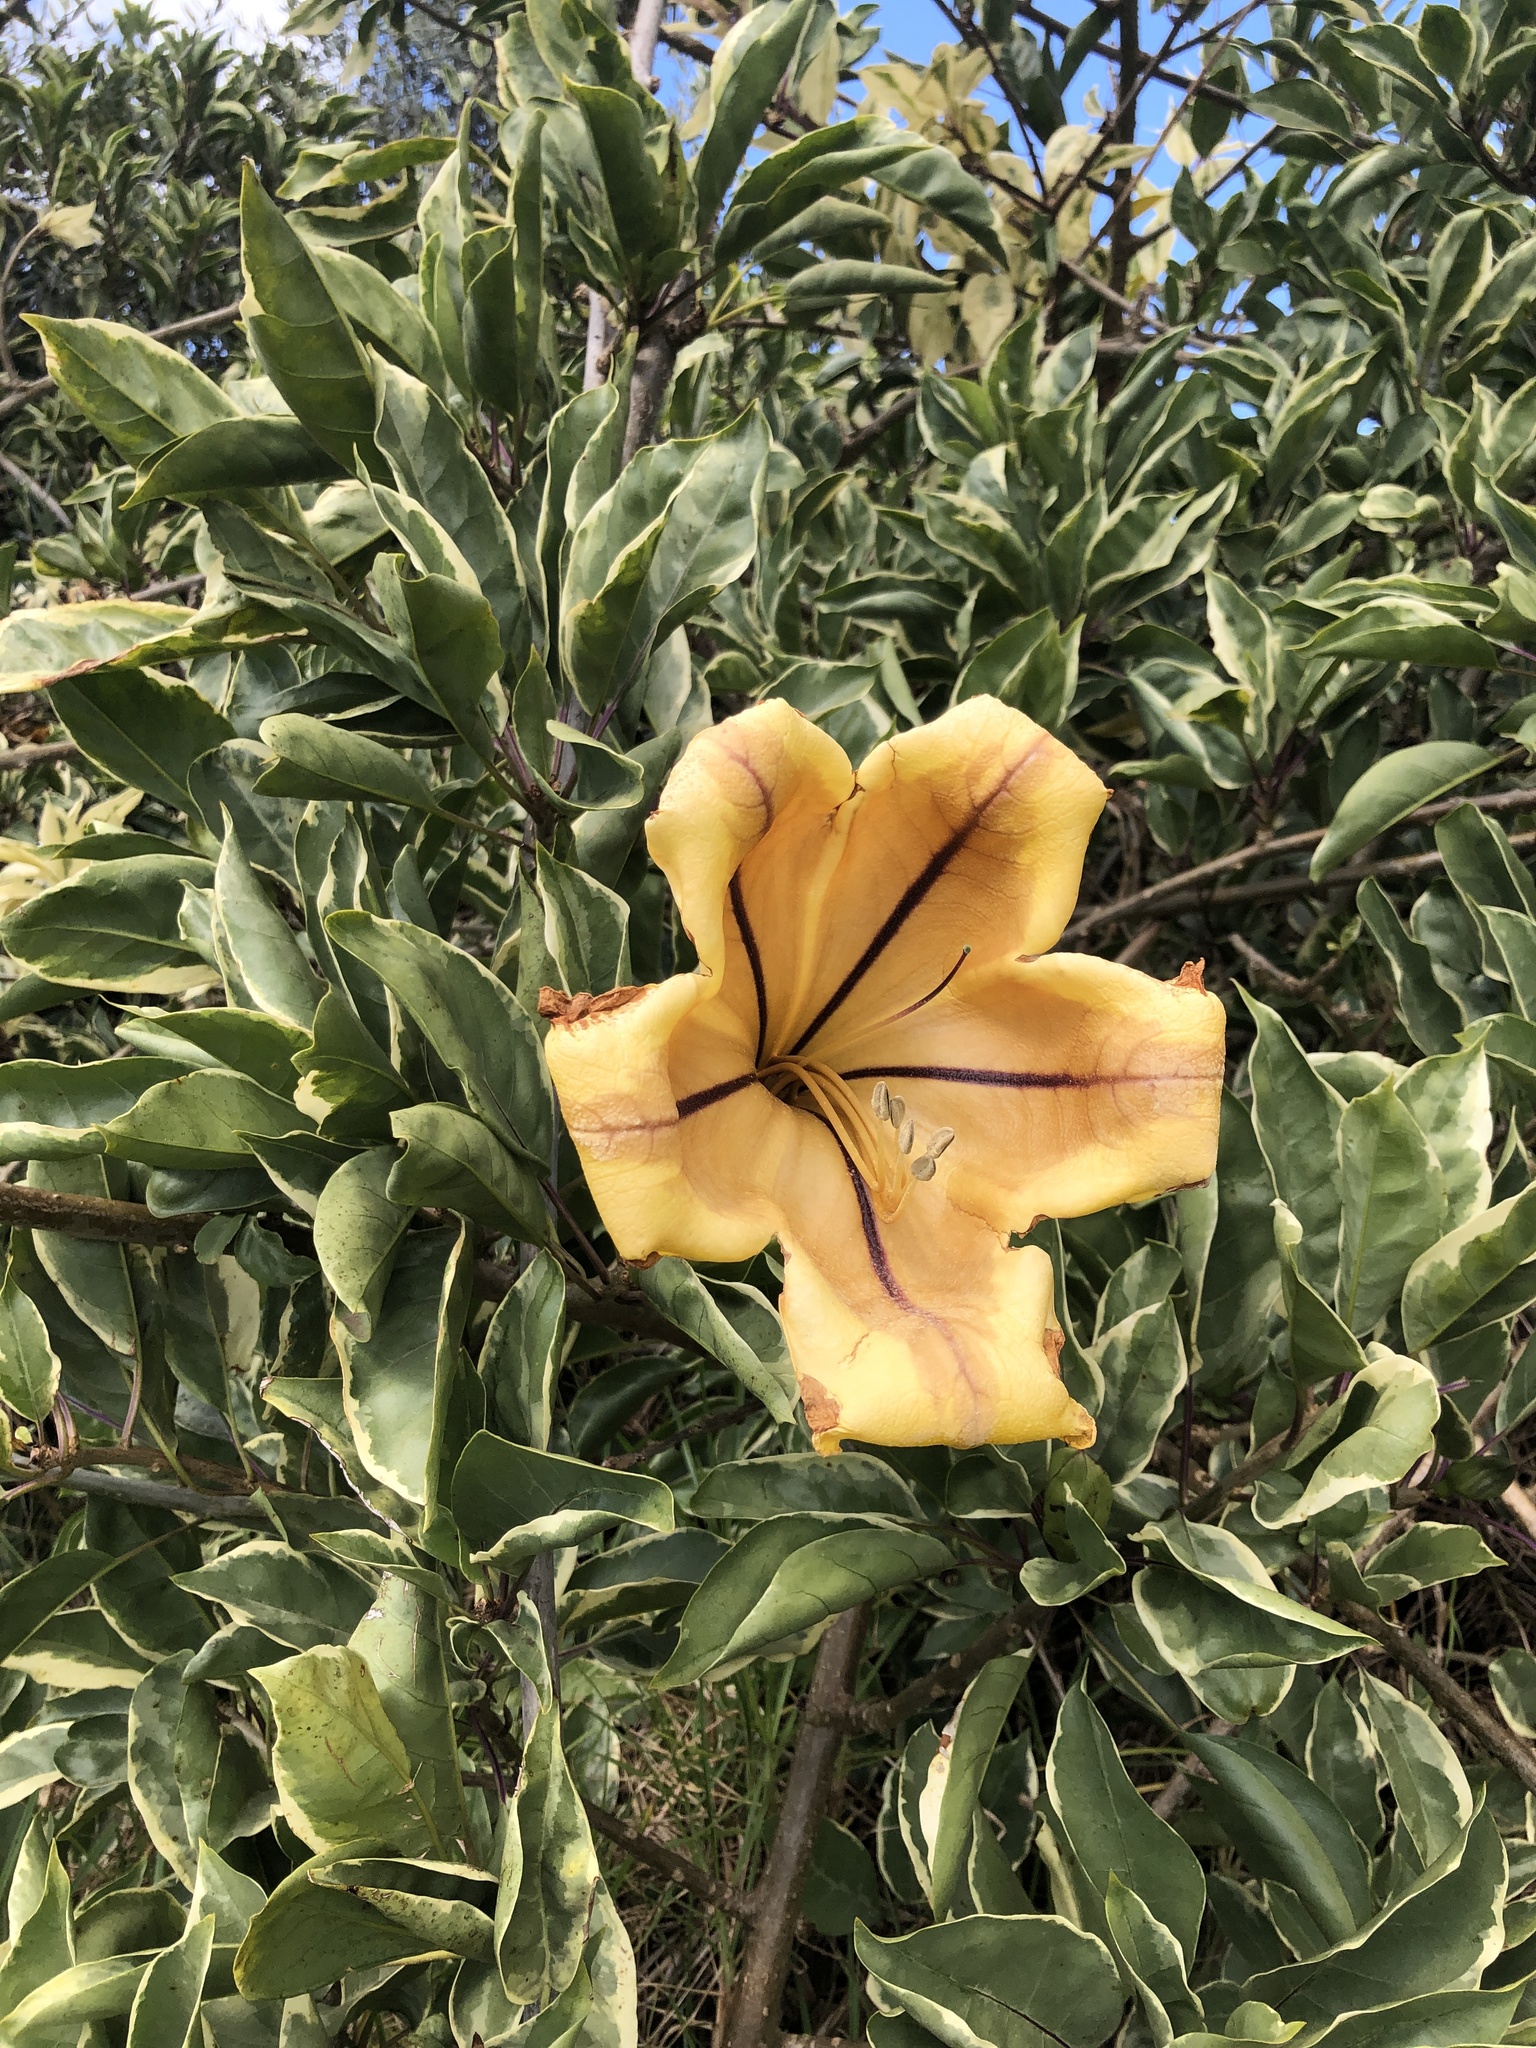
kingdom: Plantae
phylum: Tracheophyta
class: Magnoliopsida
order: Solanales
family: Solanaceae
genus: Solandra
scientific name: Solandra maxima
